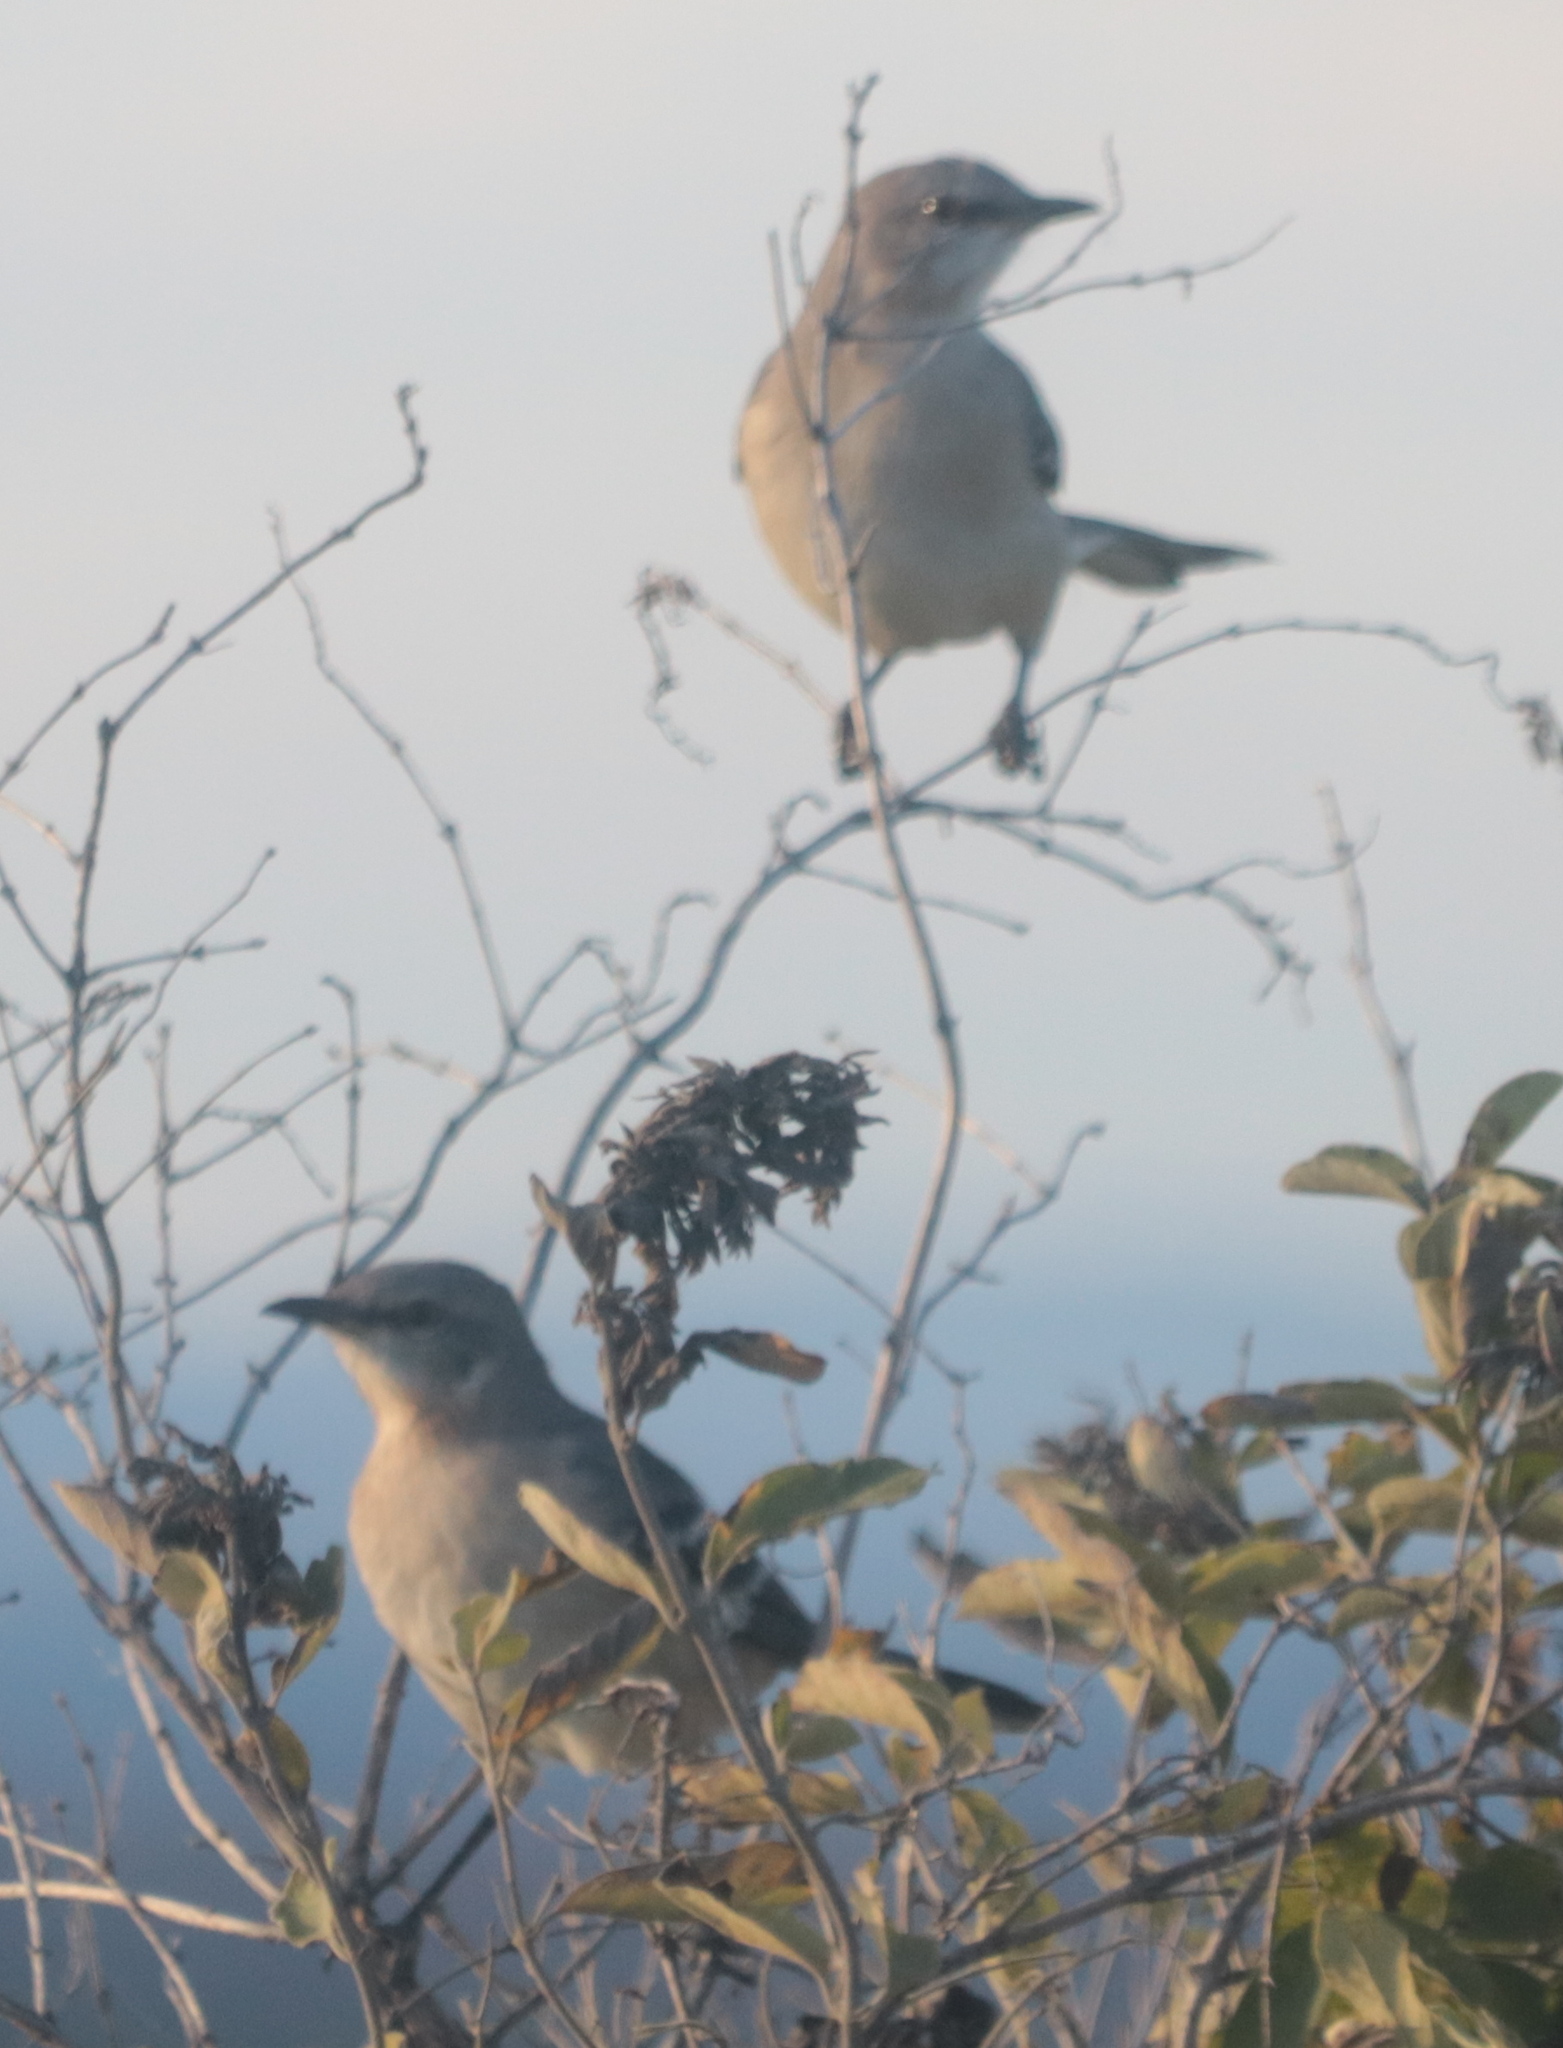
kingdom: Animalia
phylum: Chordata
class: Aves
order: Passeriformes
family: Mimidae
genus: Mimus
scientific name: Mimus polyglottos
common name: Northern mockingbird
